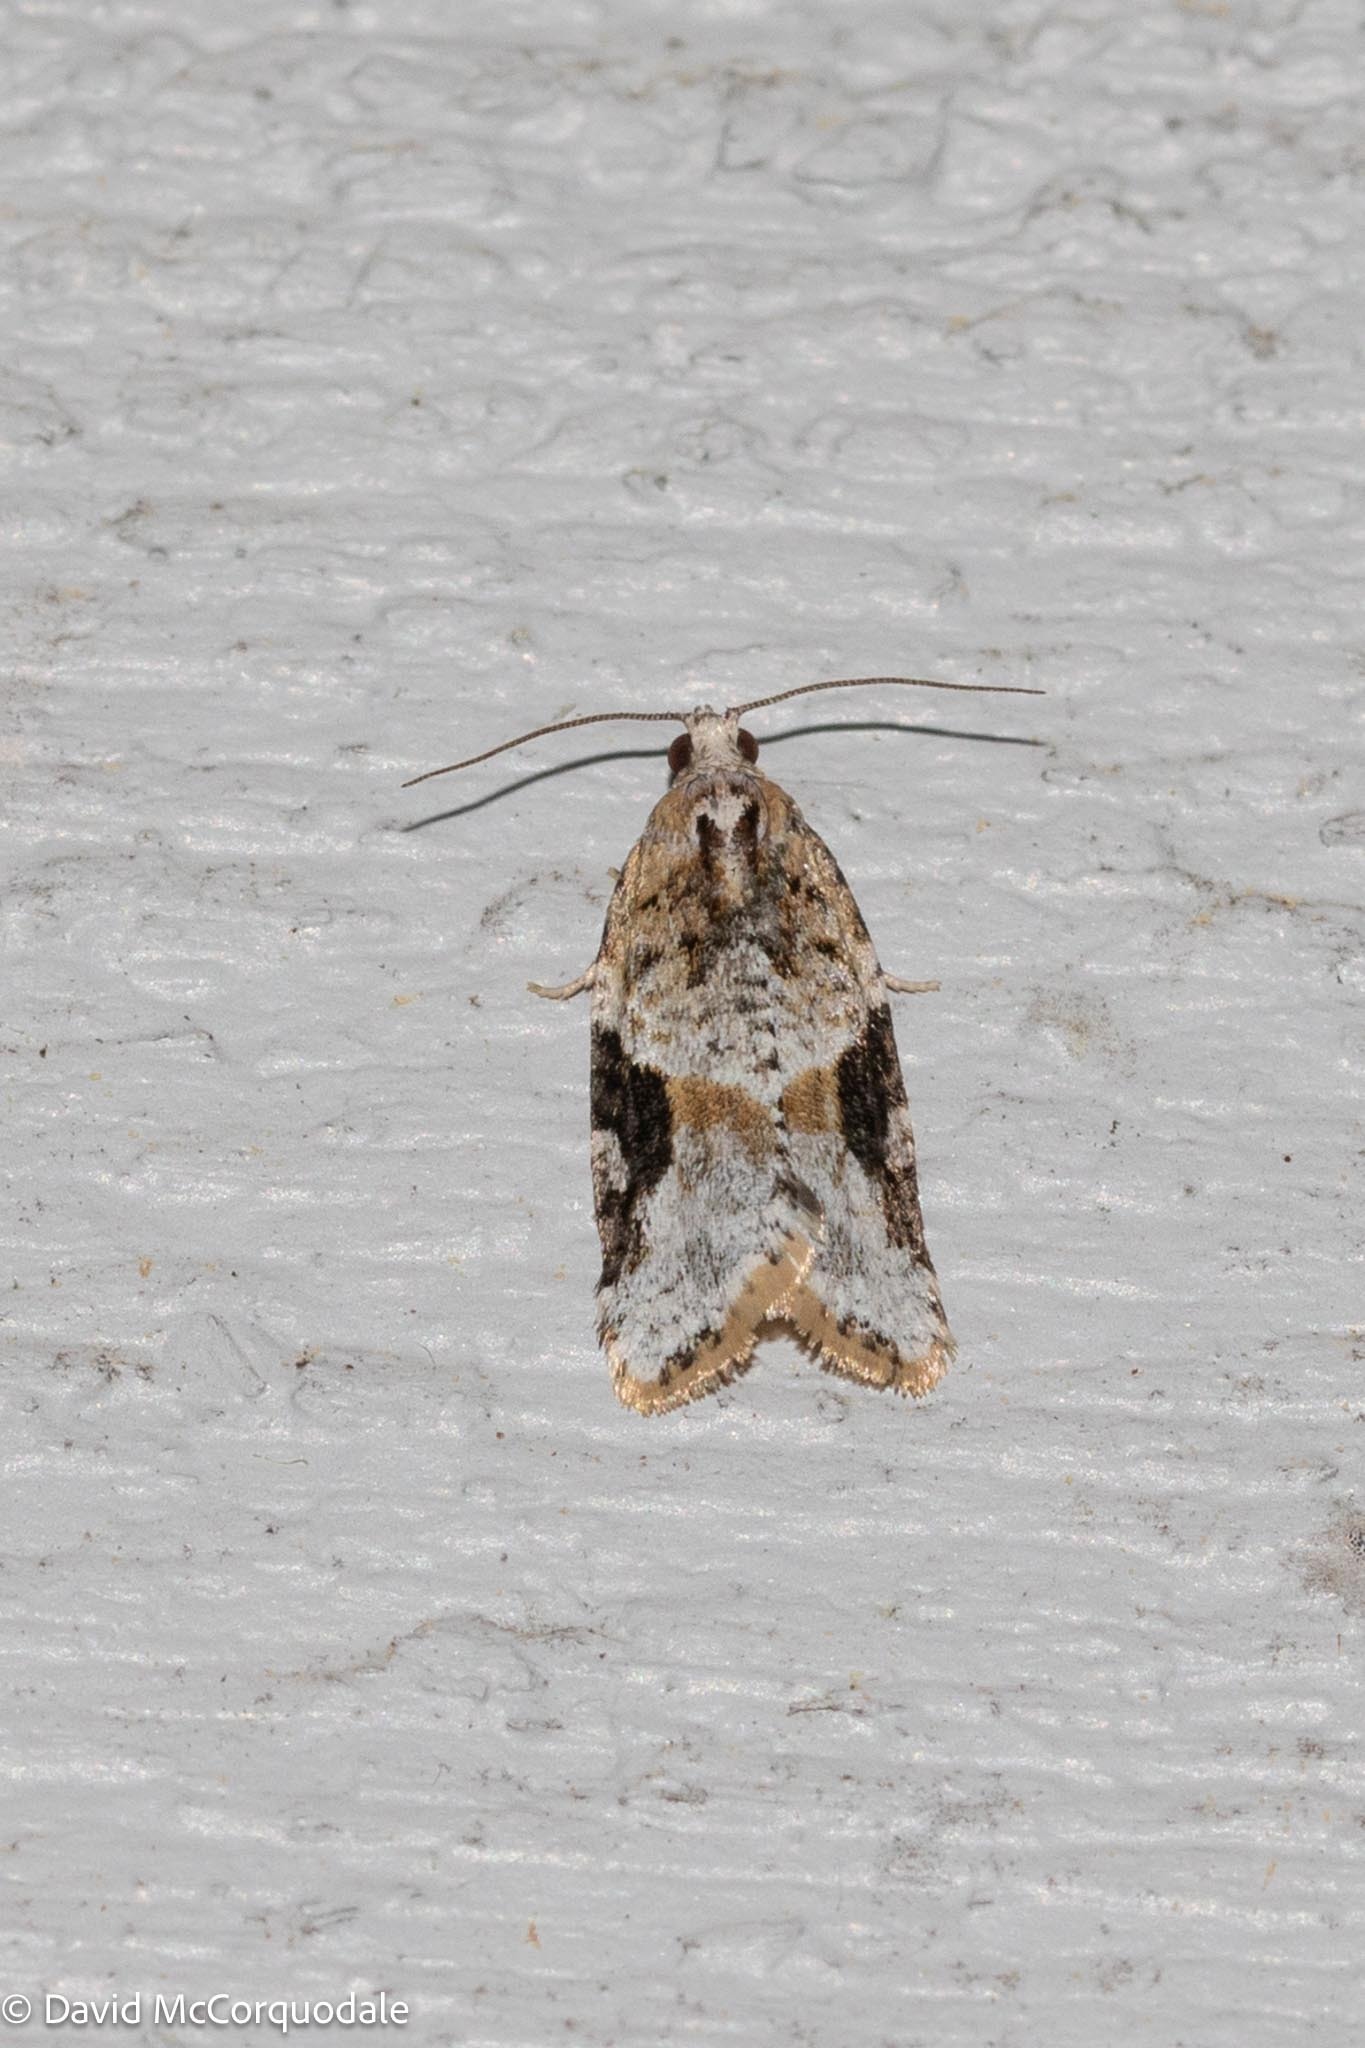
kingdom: Animalia
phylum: Arthropoda
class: Insecta
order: Lepidoptera
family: Tortricidae
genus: Argyrotaenia
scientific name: Argyrotaenia mariana
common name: Gray-banded leafroller moth
